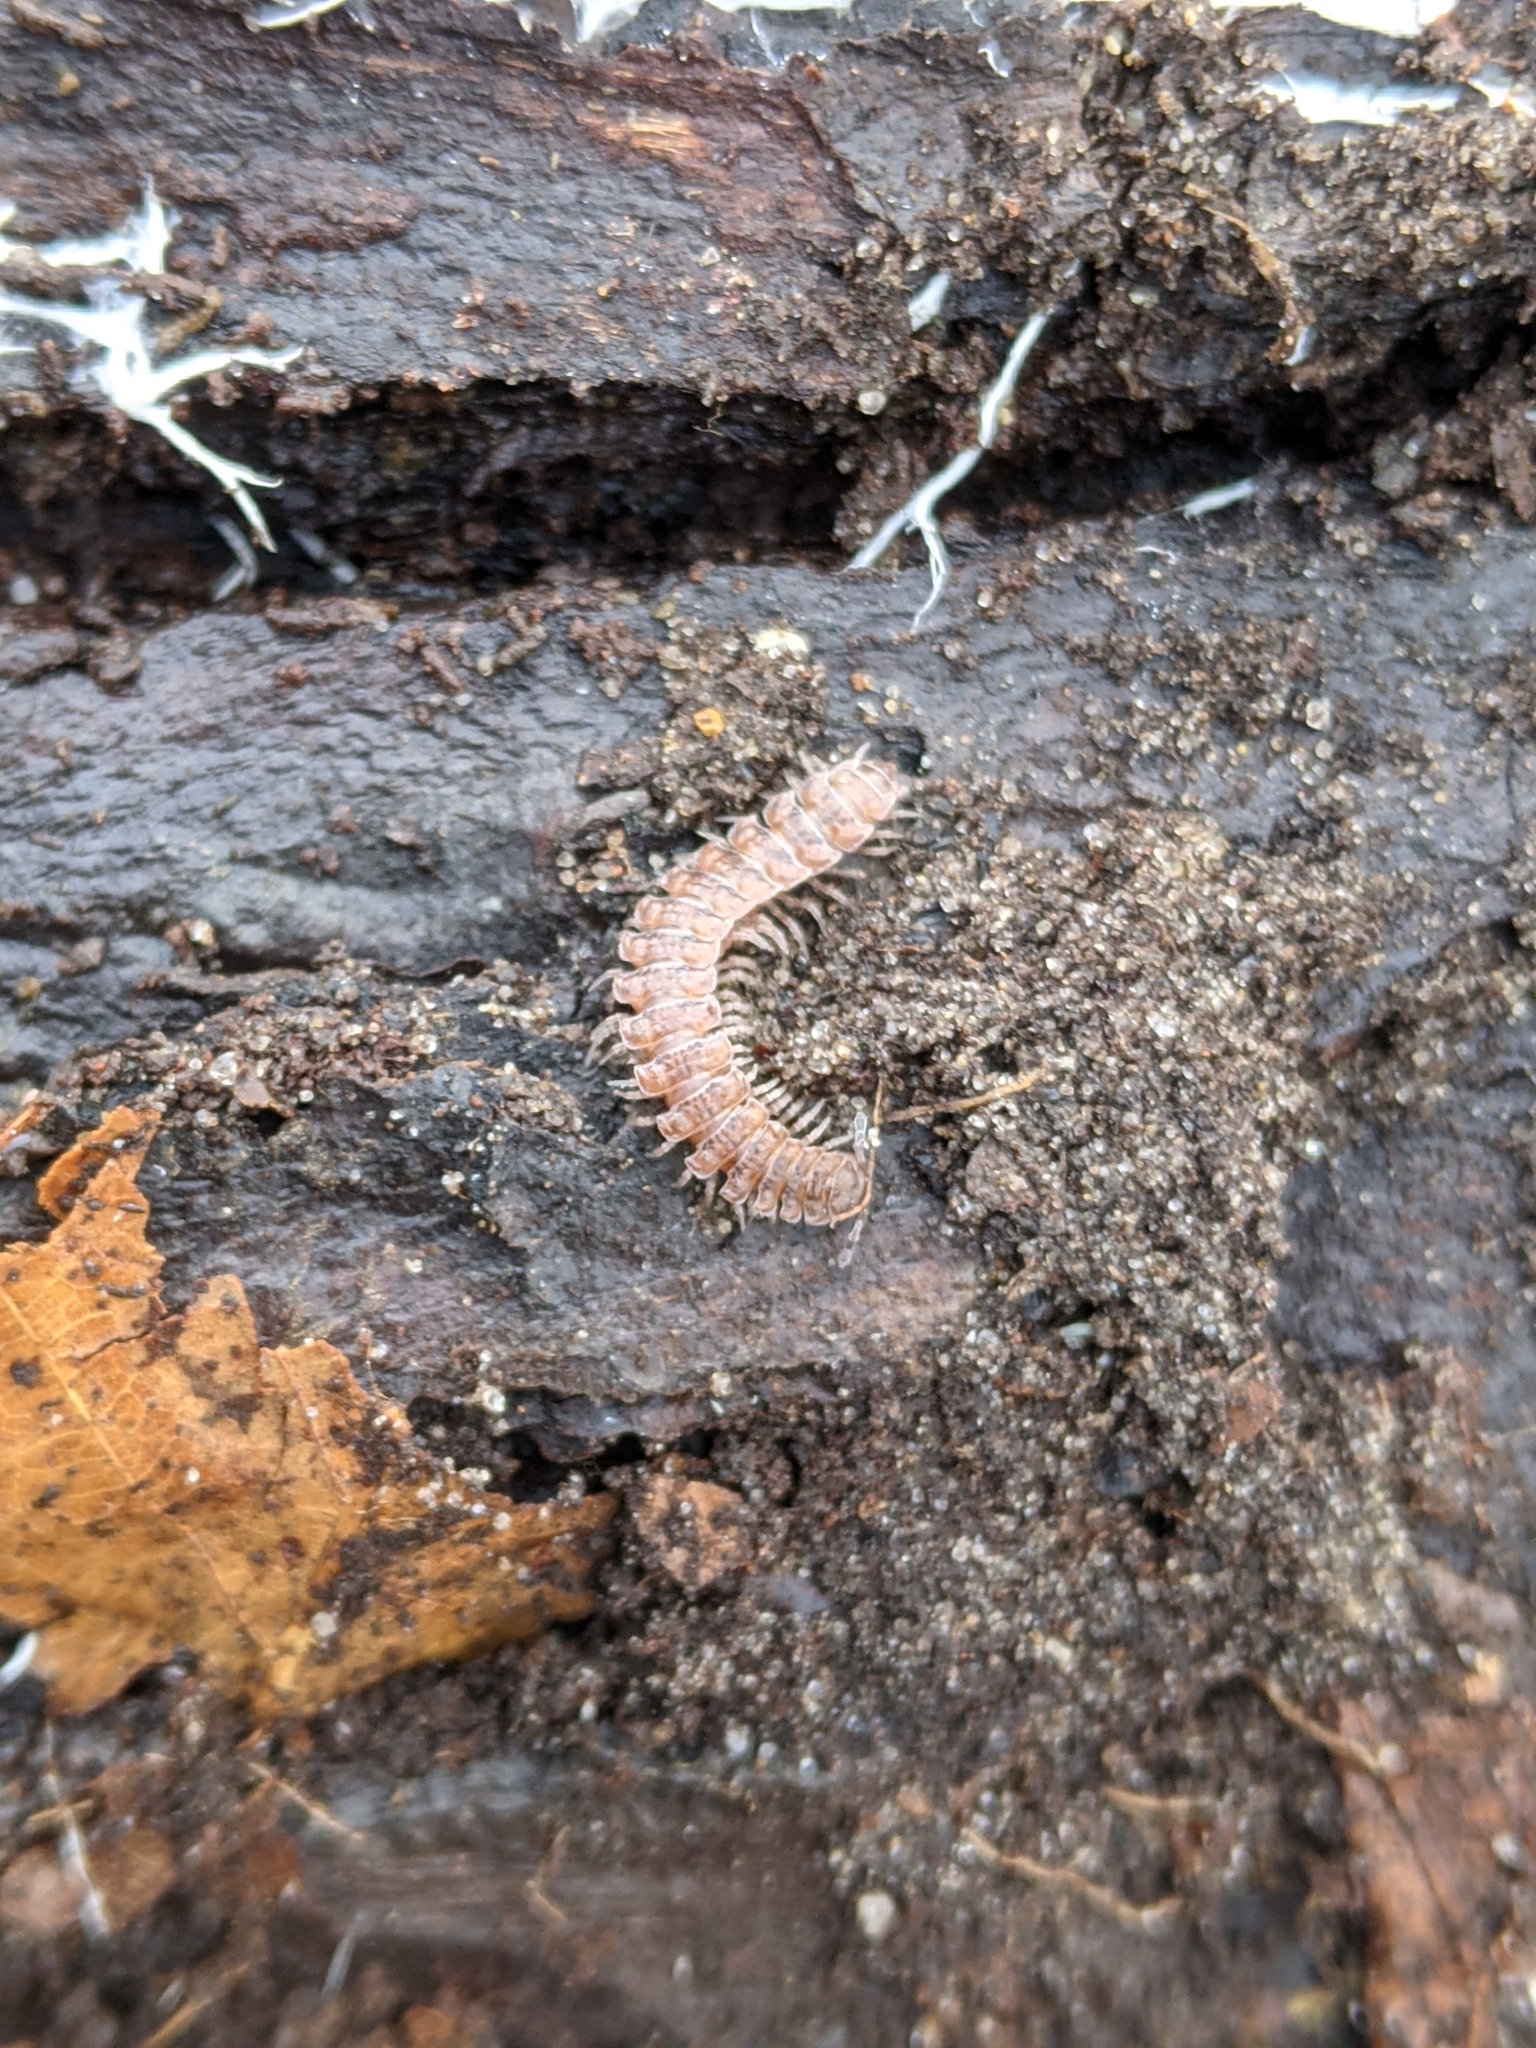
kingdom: Animalia
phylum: Arthropoda
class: Diplopoda
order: Polydesmida
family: Polydesmidae
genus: Polydesmus
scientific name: Polydesmus angustus
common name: Flat millipede
